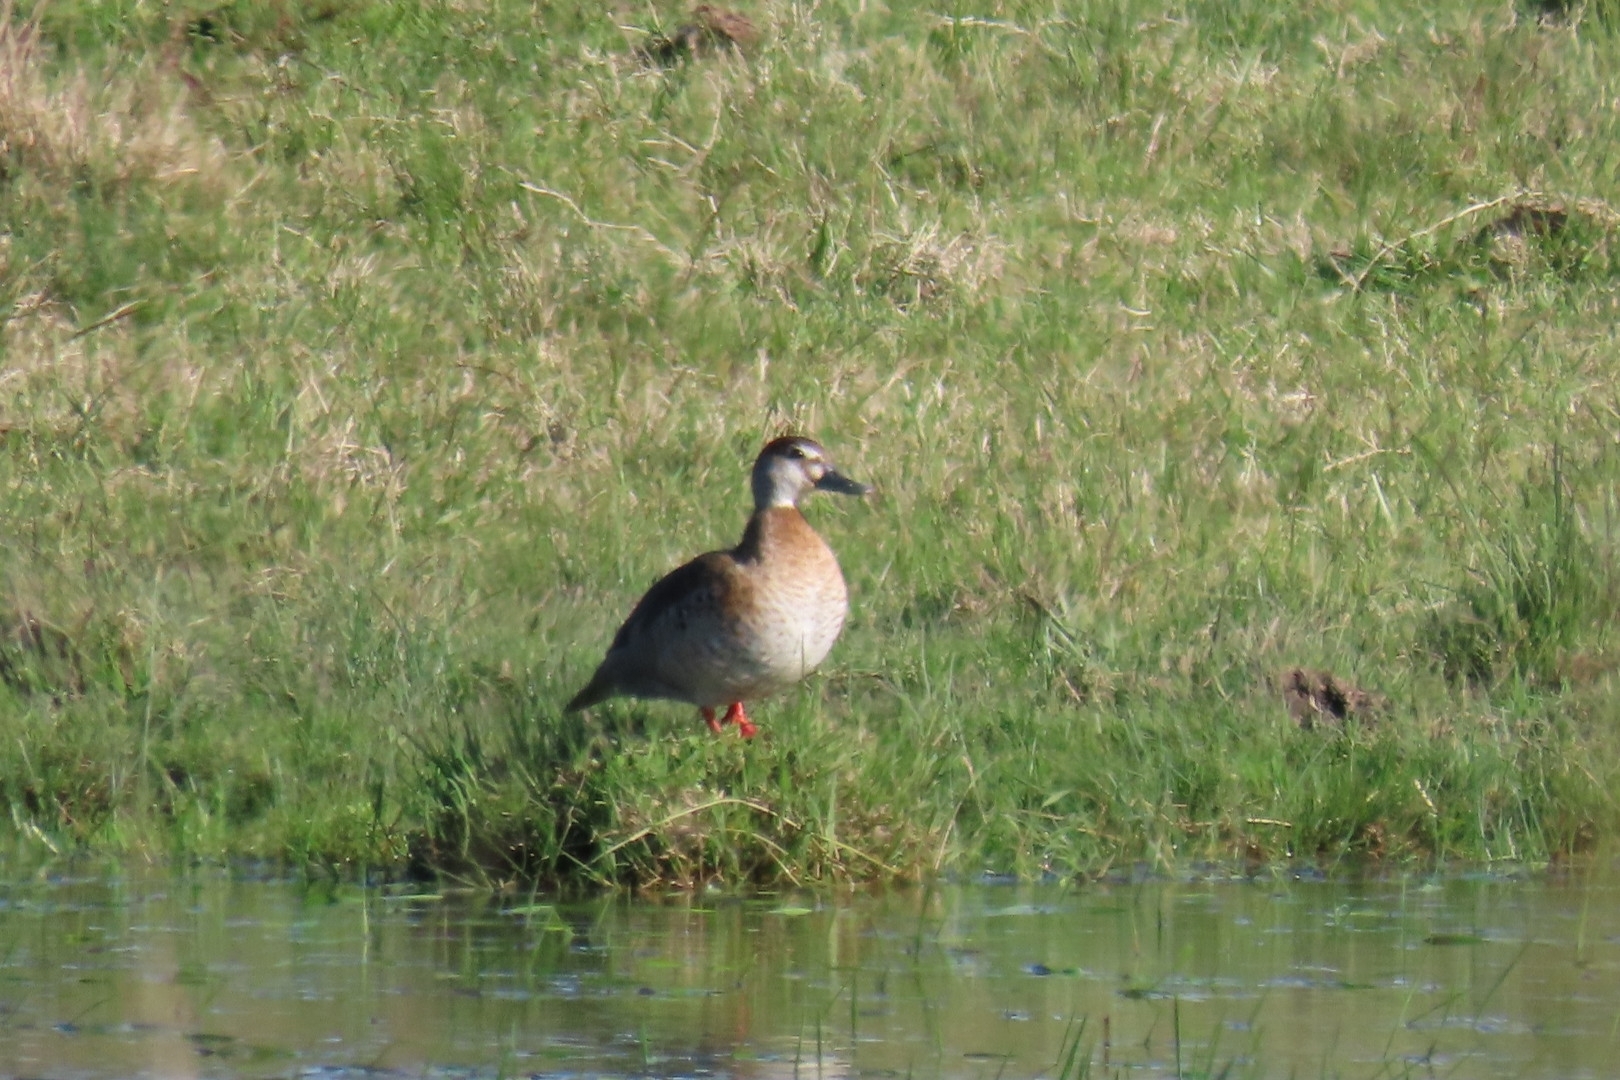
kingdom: Animalia
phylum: Chordata
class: Aves
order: Anseriformes
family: Anatidae
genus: Amazonetta
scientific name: Amazonetta brasiliensis
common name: Brazilian teal
